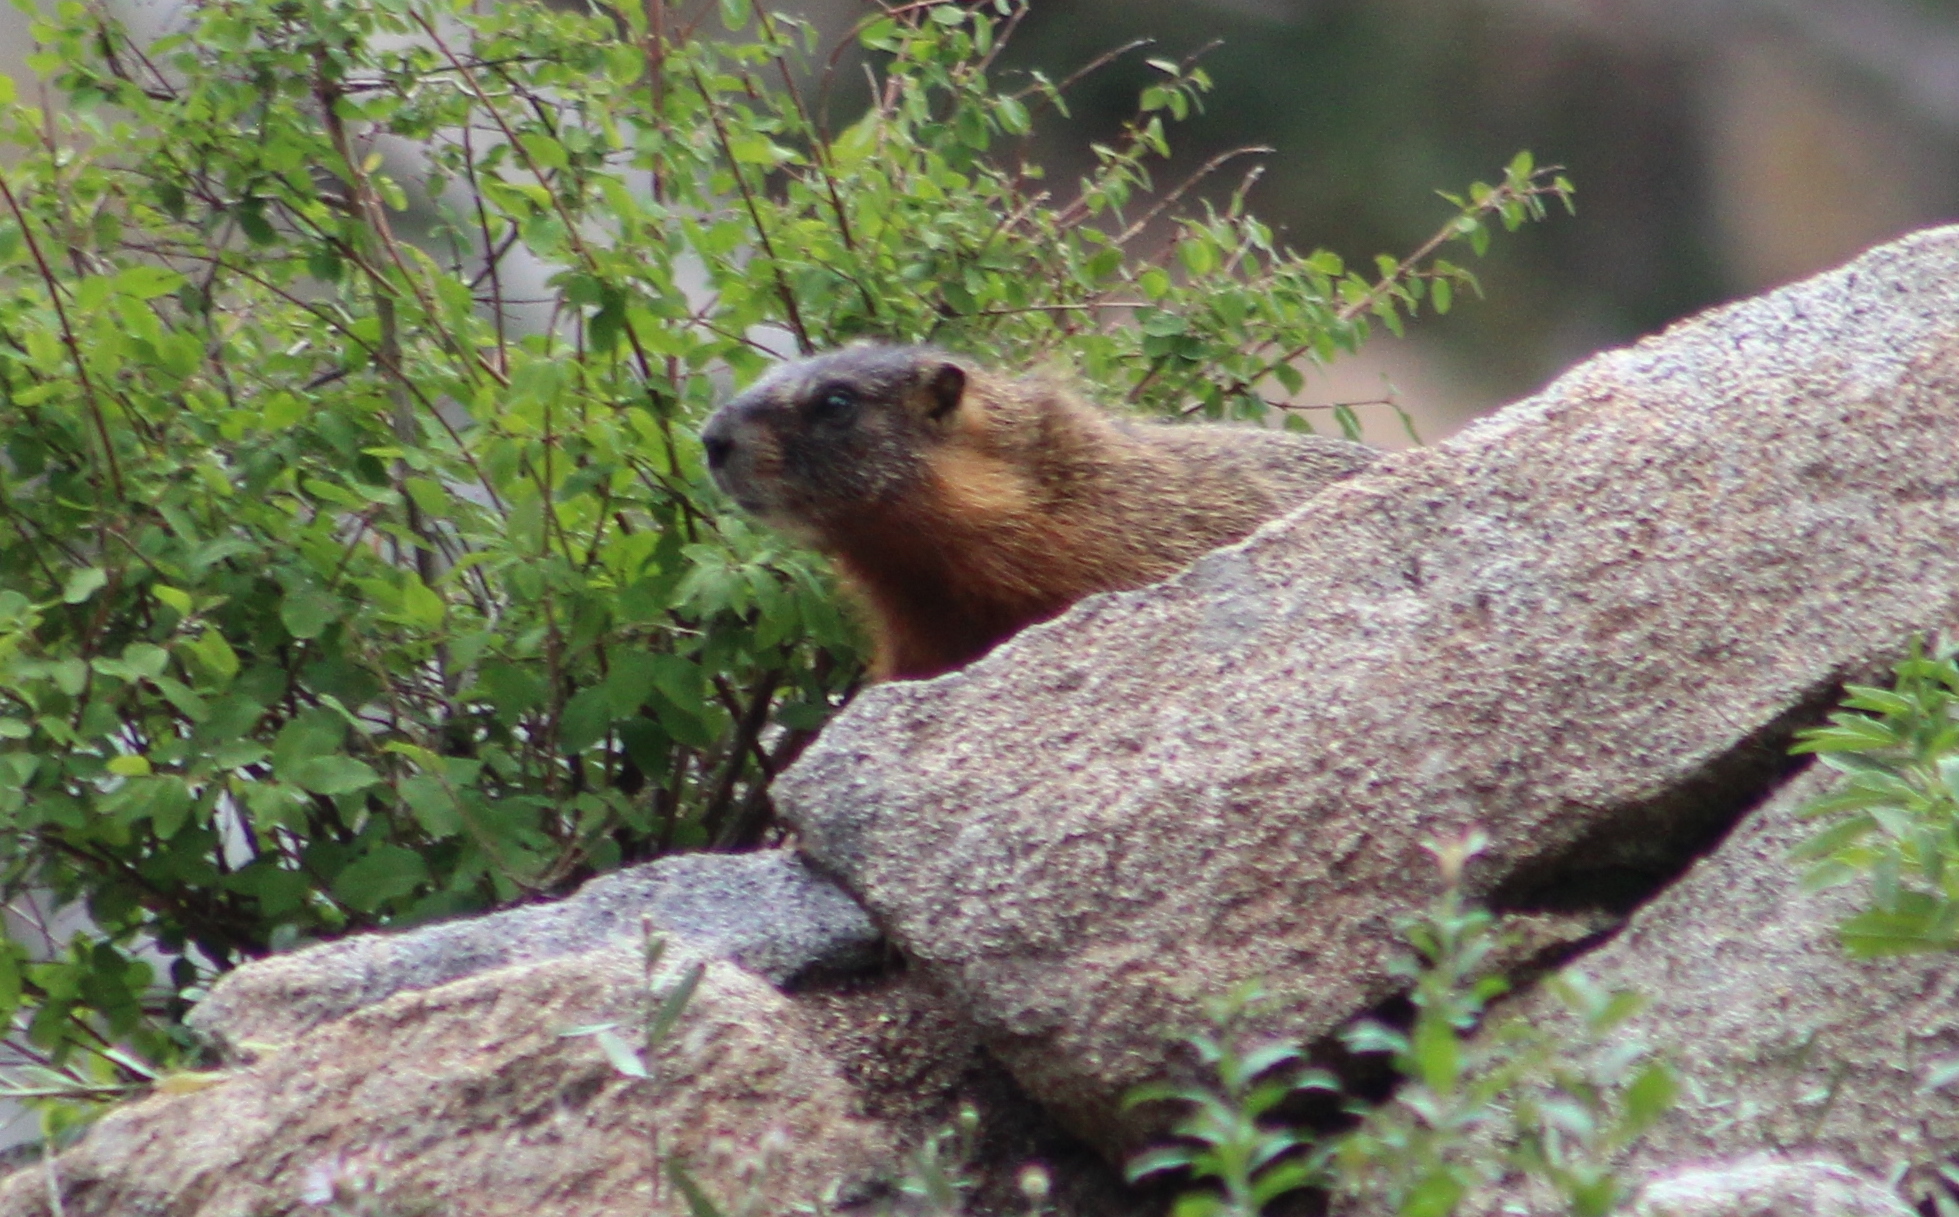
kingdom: Animalia
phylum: Chordata
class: Mammalia
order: Rodentia
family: Sciuridae
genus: Marmota
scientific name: Marmota flaviventris
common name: Yellow-bellied marmot
